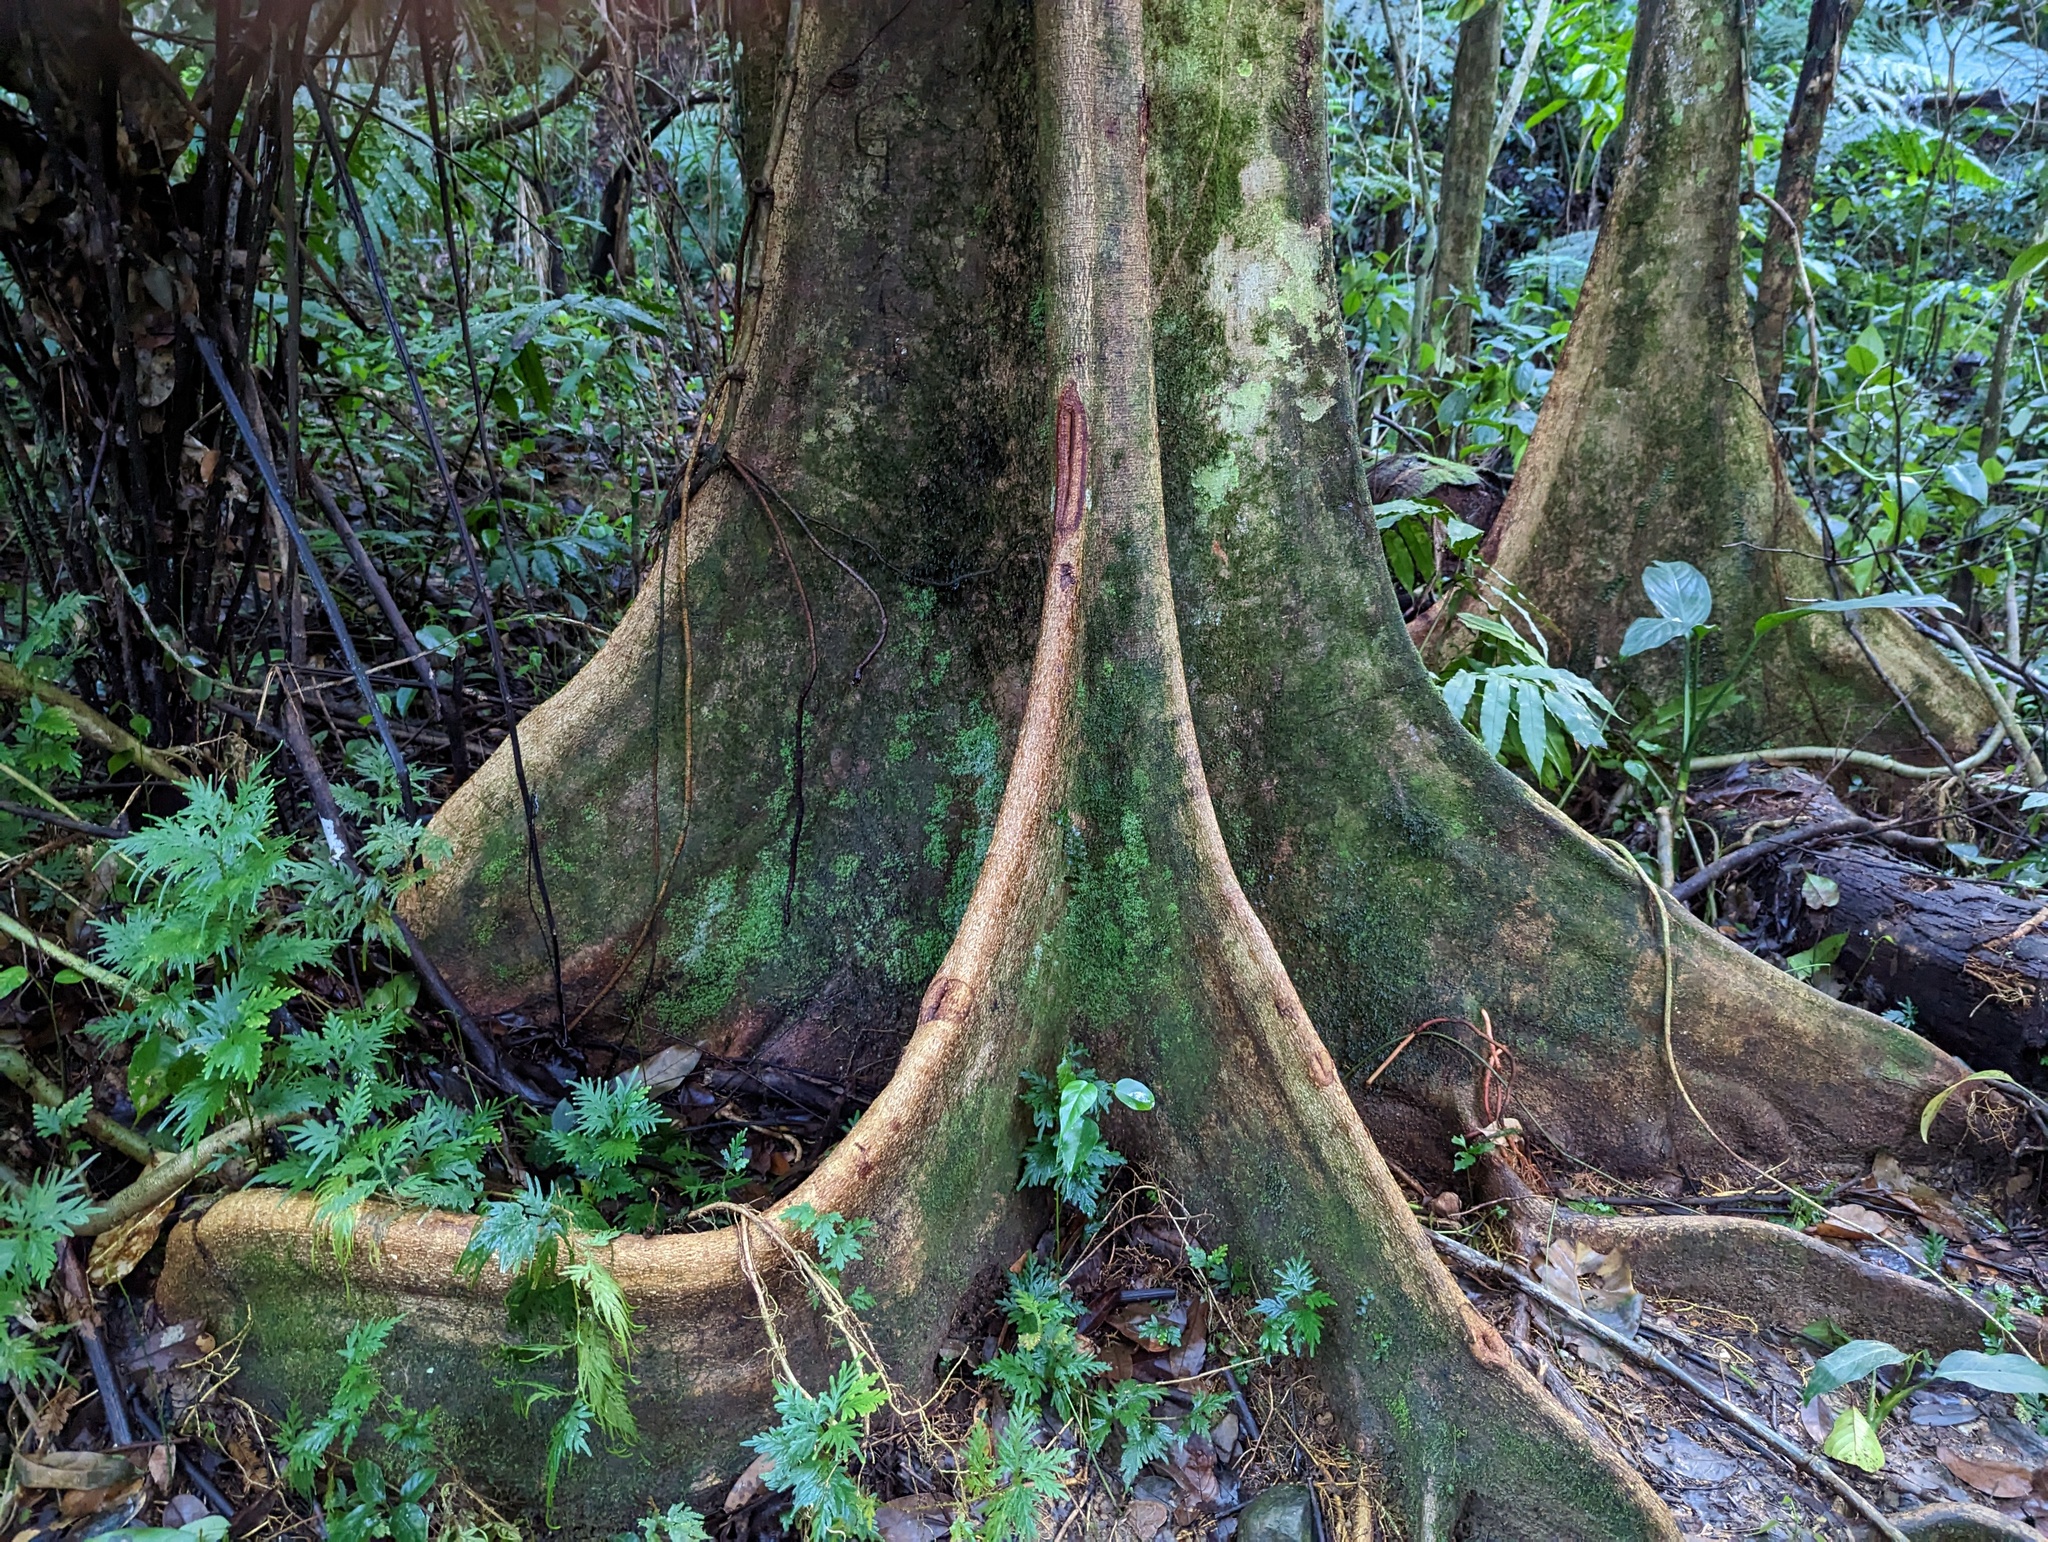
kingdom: Plantae
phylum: Tracheophyta
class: Magnoliopsida
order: Fabales
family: Fabaceae
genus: Pterocarpus
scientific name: Pterocarpus officinalis
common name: Bloodwood
